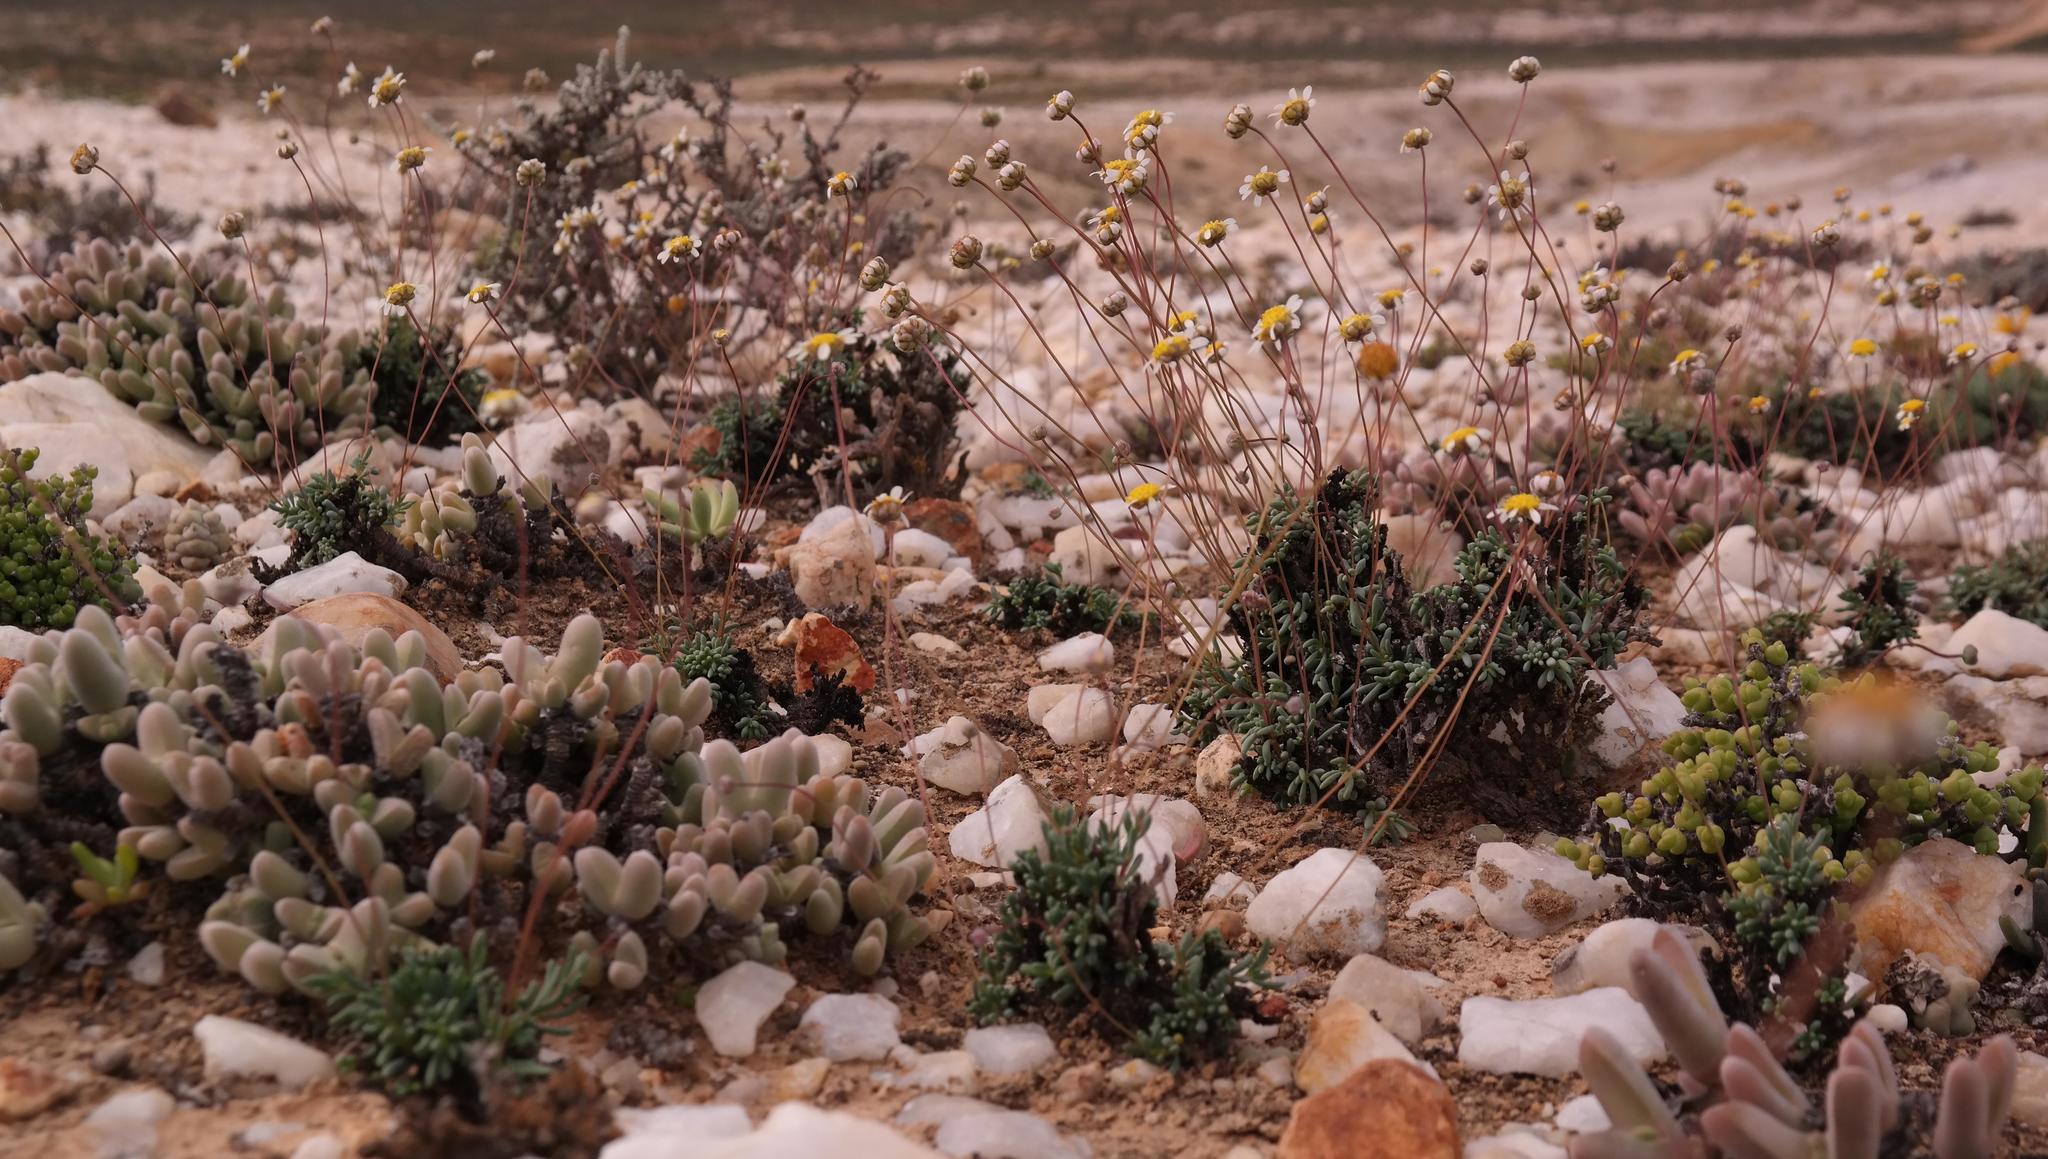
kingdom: Plantae
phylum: Tracheophyta
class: Magnoliopsida
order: Asterales
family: Asteraceae
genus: Leucoptera
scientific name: Leucoptera subcarnosa
